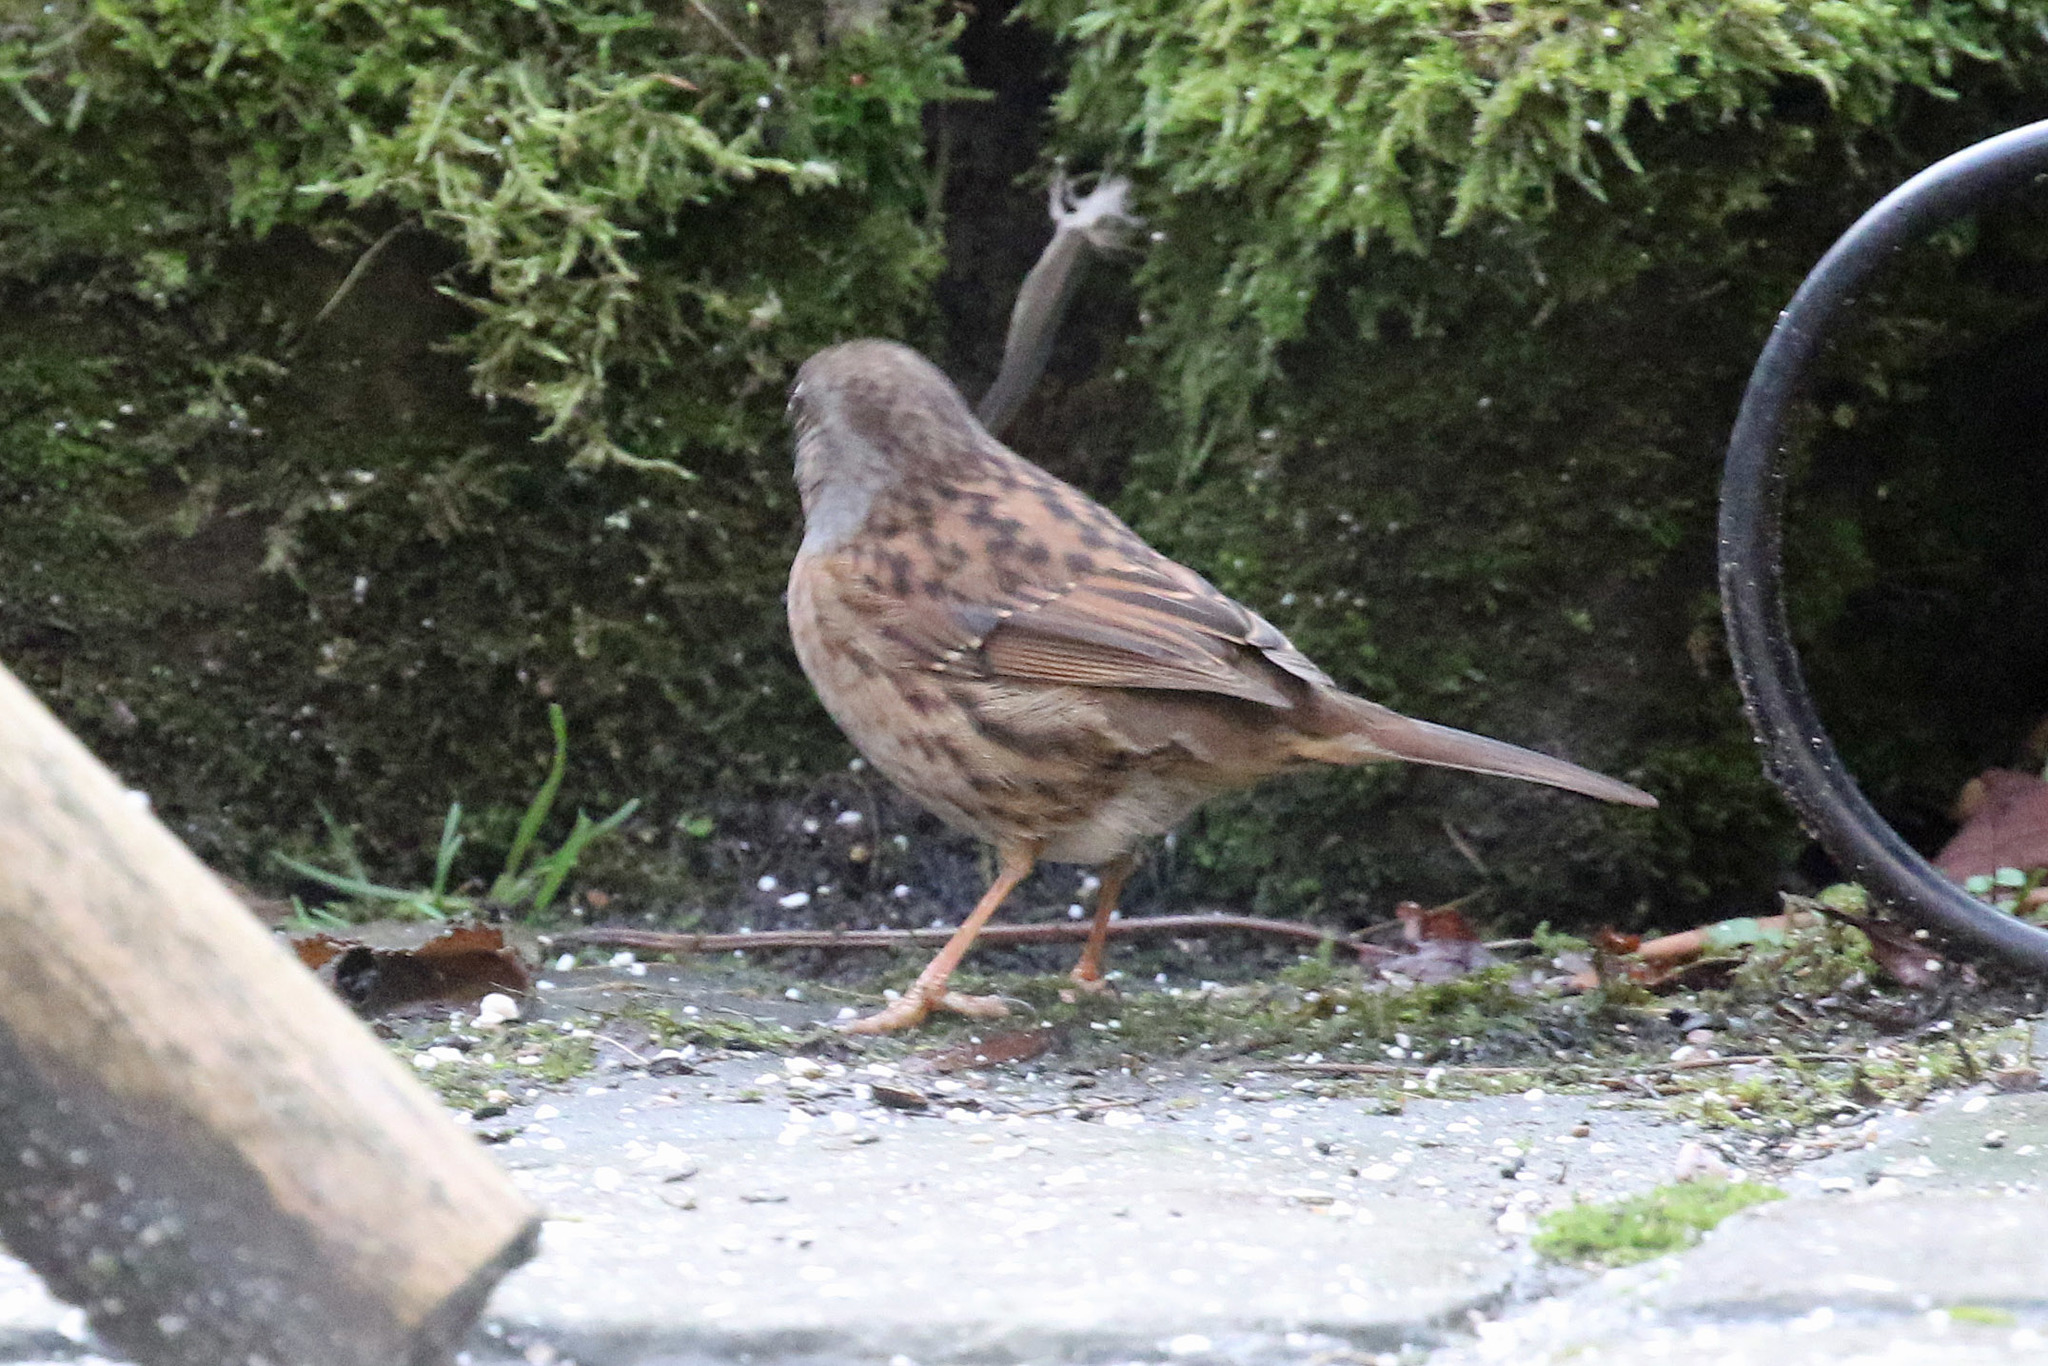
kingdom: Animalia
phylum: Chordata
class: Aves
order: Passeriformes
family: Prunellidae
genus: Prunella
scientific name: Prunella modularis
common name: Dunnock
